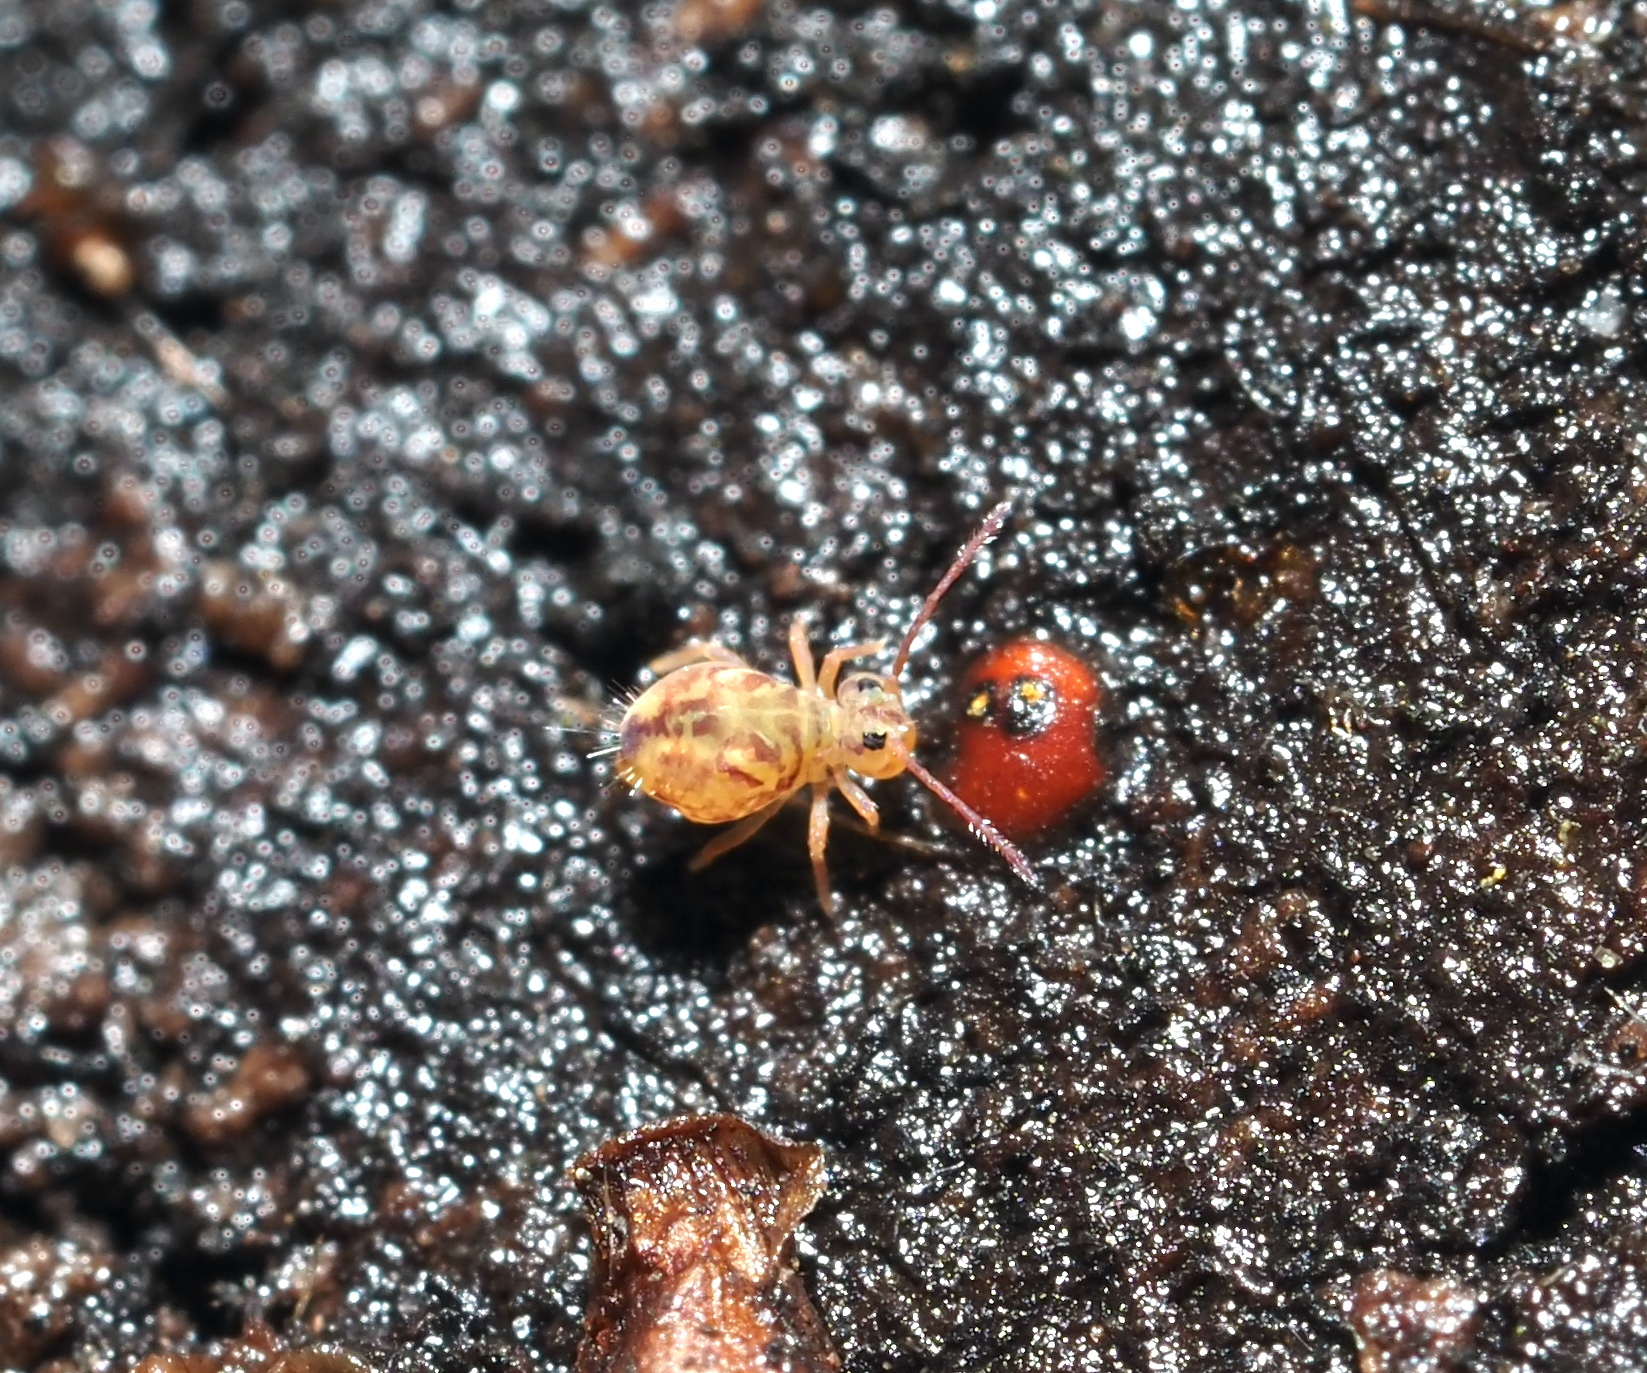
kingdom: Animalia
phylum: Arthropoda
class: Collembola
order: Symphypleona
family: Dicyrtomidae
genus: Dicyrtomina
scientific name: Dicyrtomina minuta
